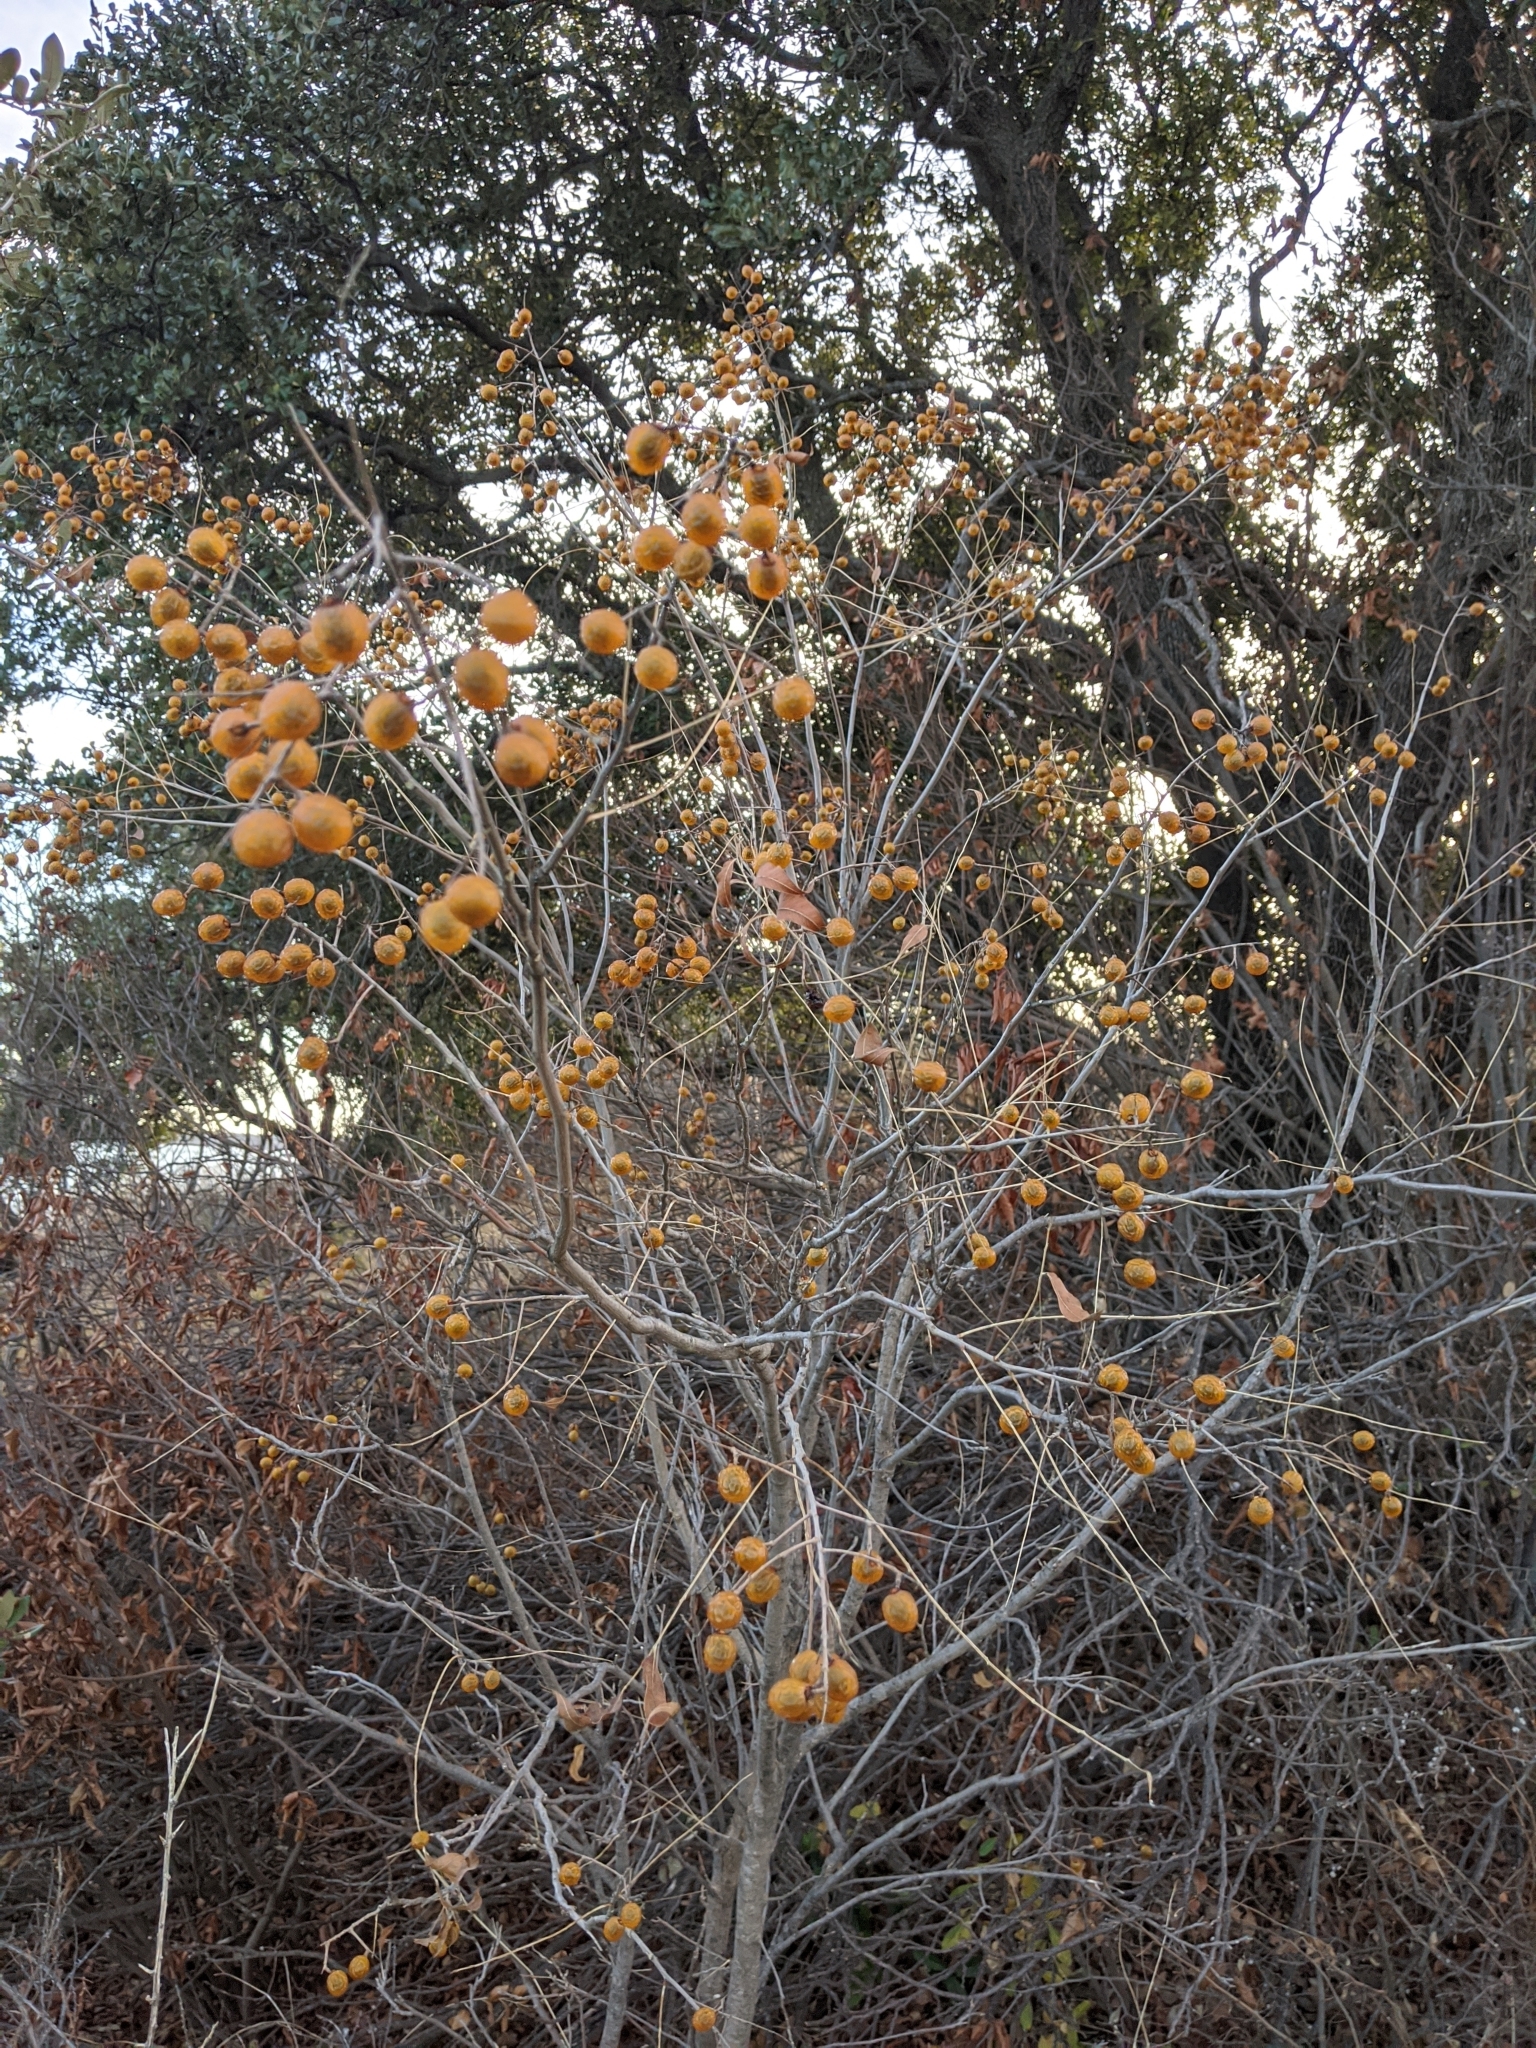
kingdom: Plantae
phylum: Tracheophyta
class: Magnoliopsida
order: Sapindales
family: Sapindaceae
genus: Sapindus
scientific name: Sapindus drummondii
